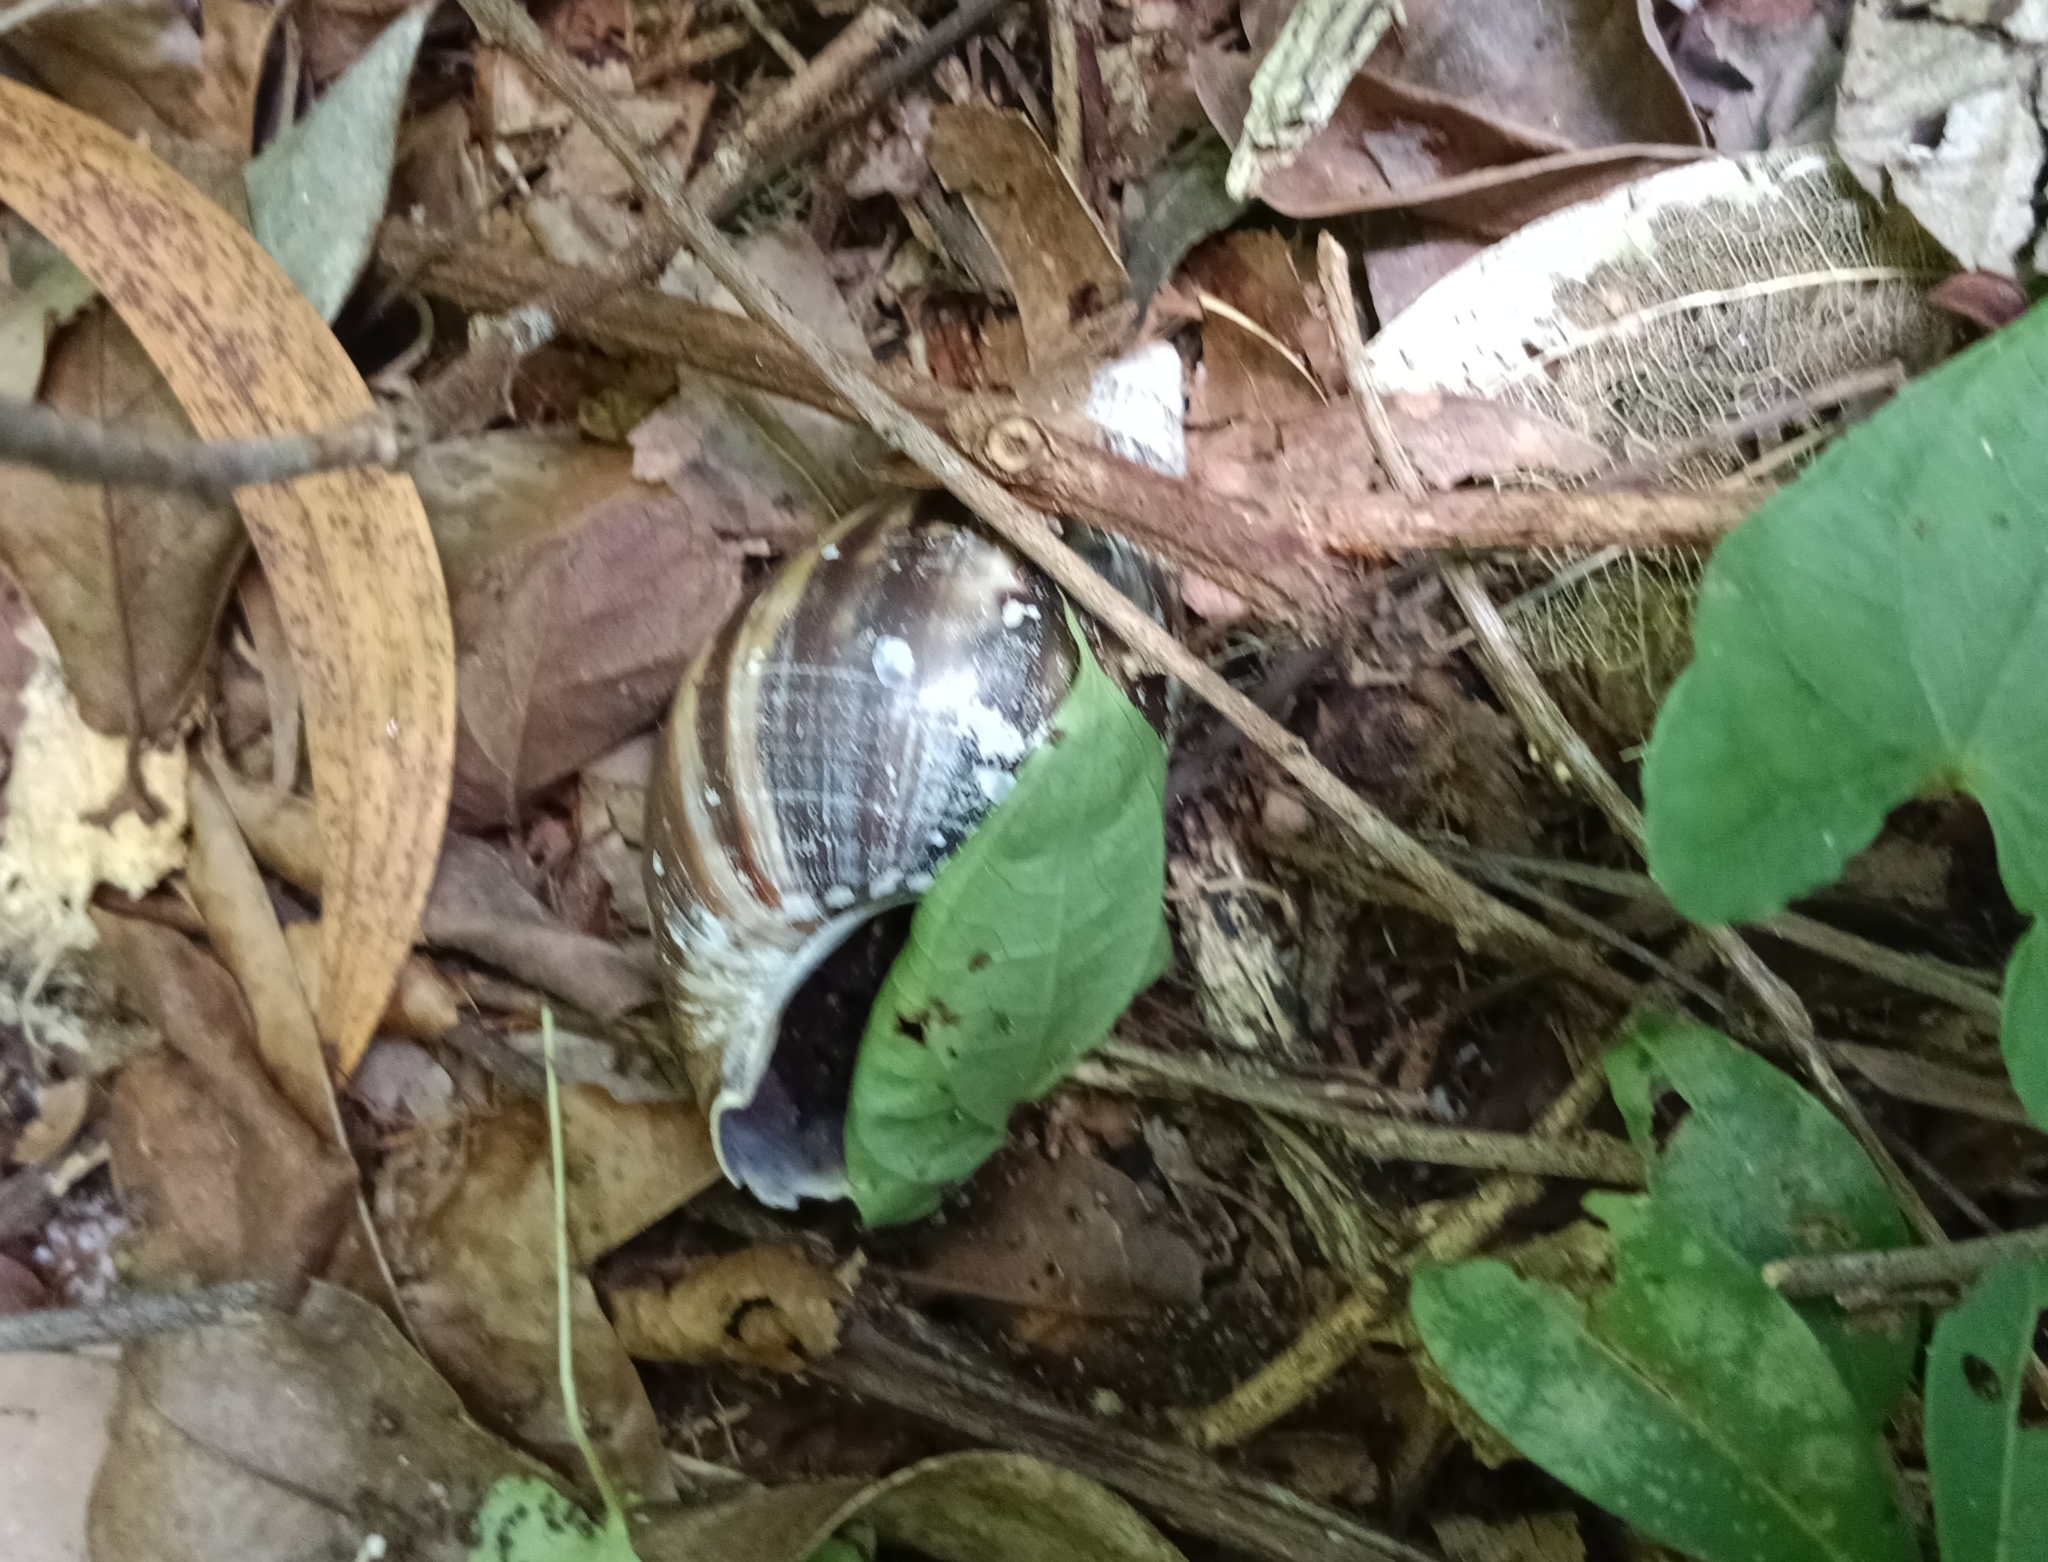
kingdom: Animalia
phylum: Mollusca
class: Gastropoda
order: Stylommatophora
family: Achatinidae
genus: Lissachatina
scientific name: Lissachatina fulica
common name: Giant african snail
